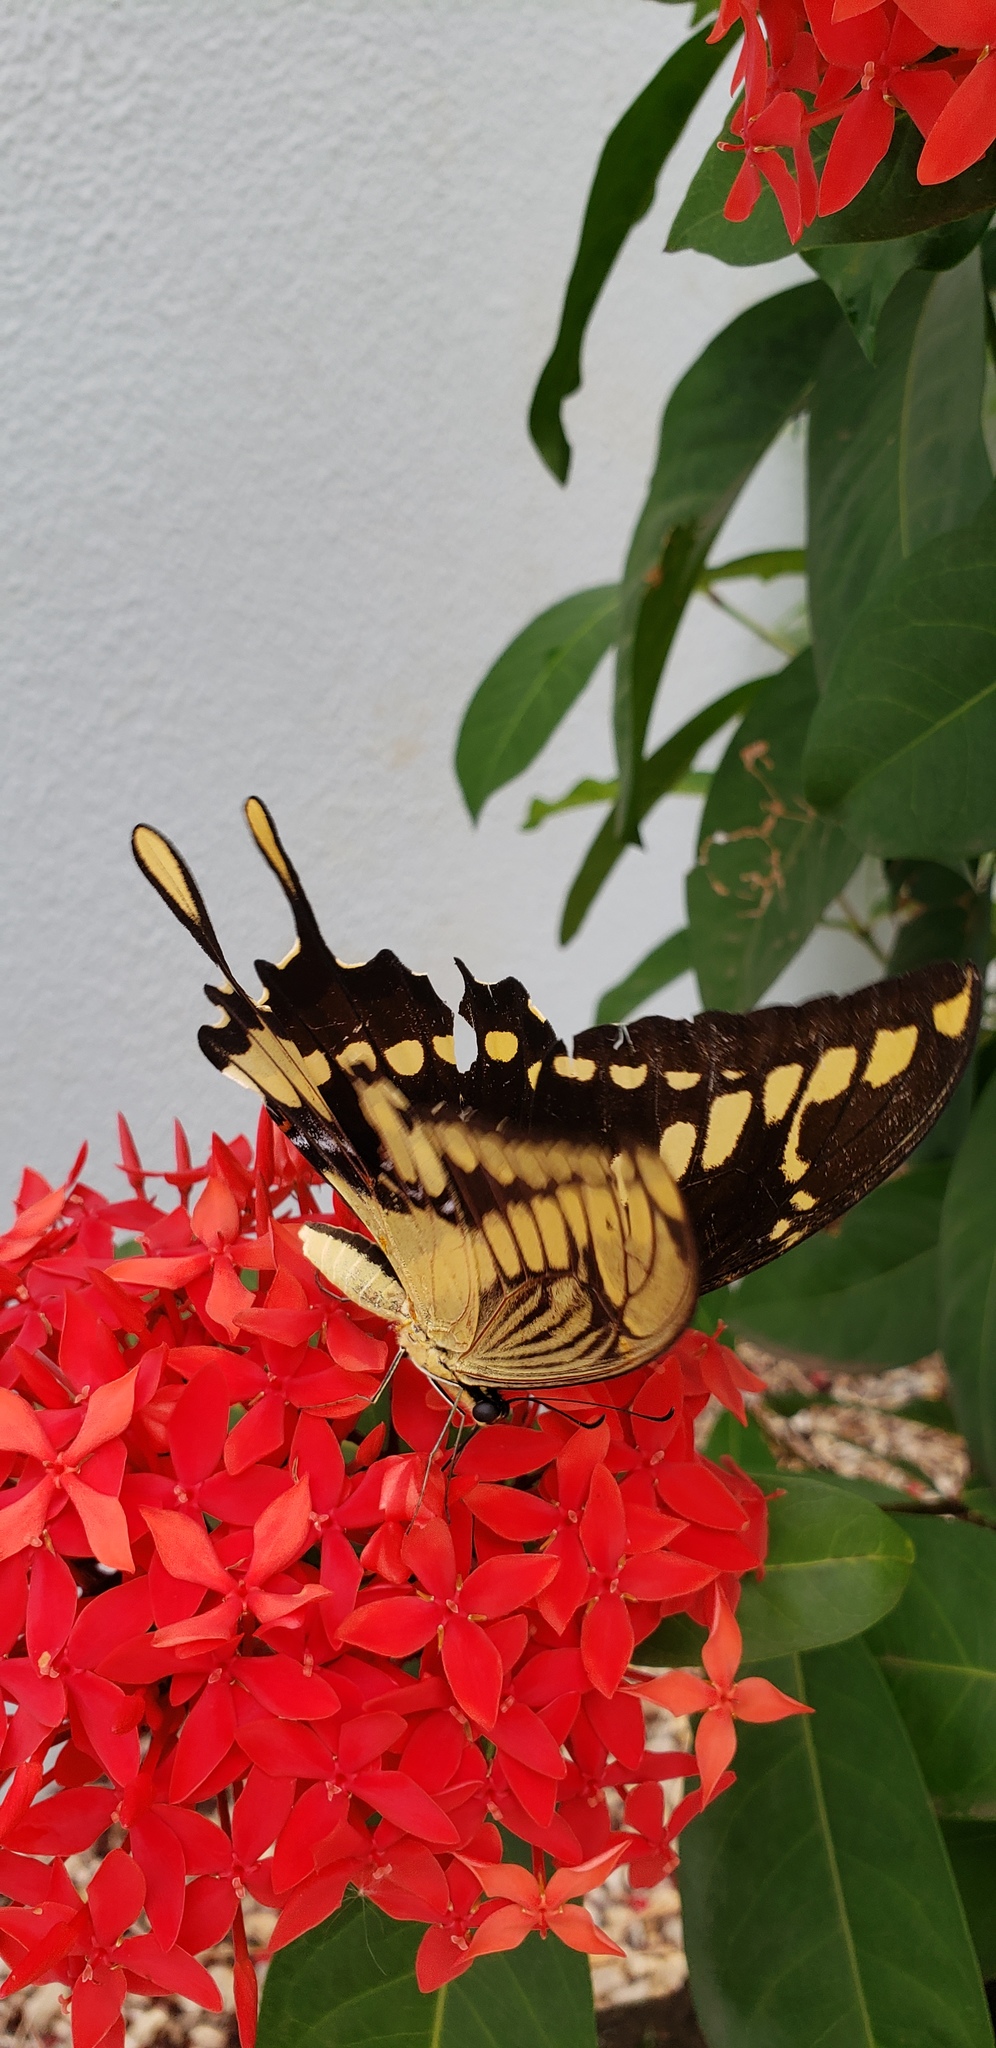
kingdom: Animalia
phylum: Arthropoda
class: Insecta
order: Lepidoptera
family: Papilionidae
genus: Papilio
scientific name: Papilio thoas
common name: King swallowtail
